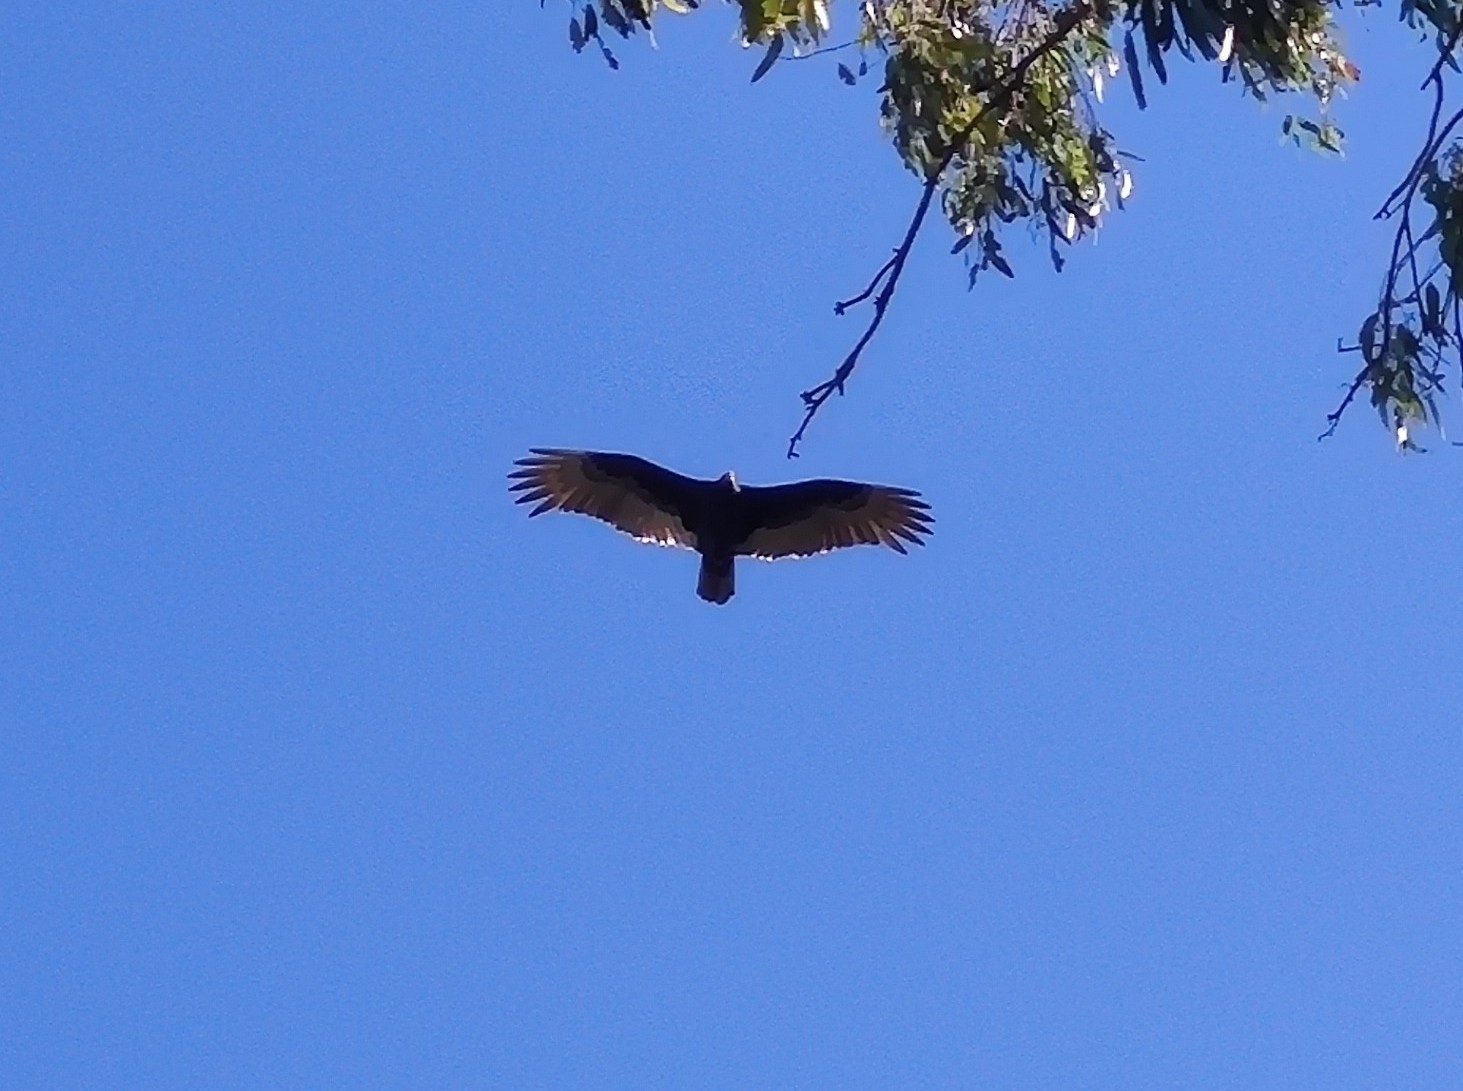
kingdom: Animalia
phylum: Chordata
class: Aves
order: Accipitriformes
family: Cathartidae
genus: Cathartes
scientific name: Cathartes aura
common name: Turkey vulture
